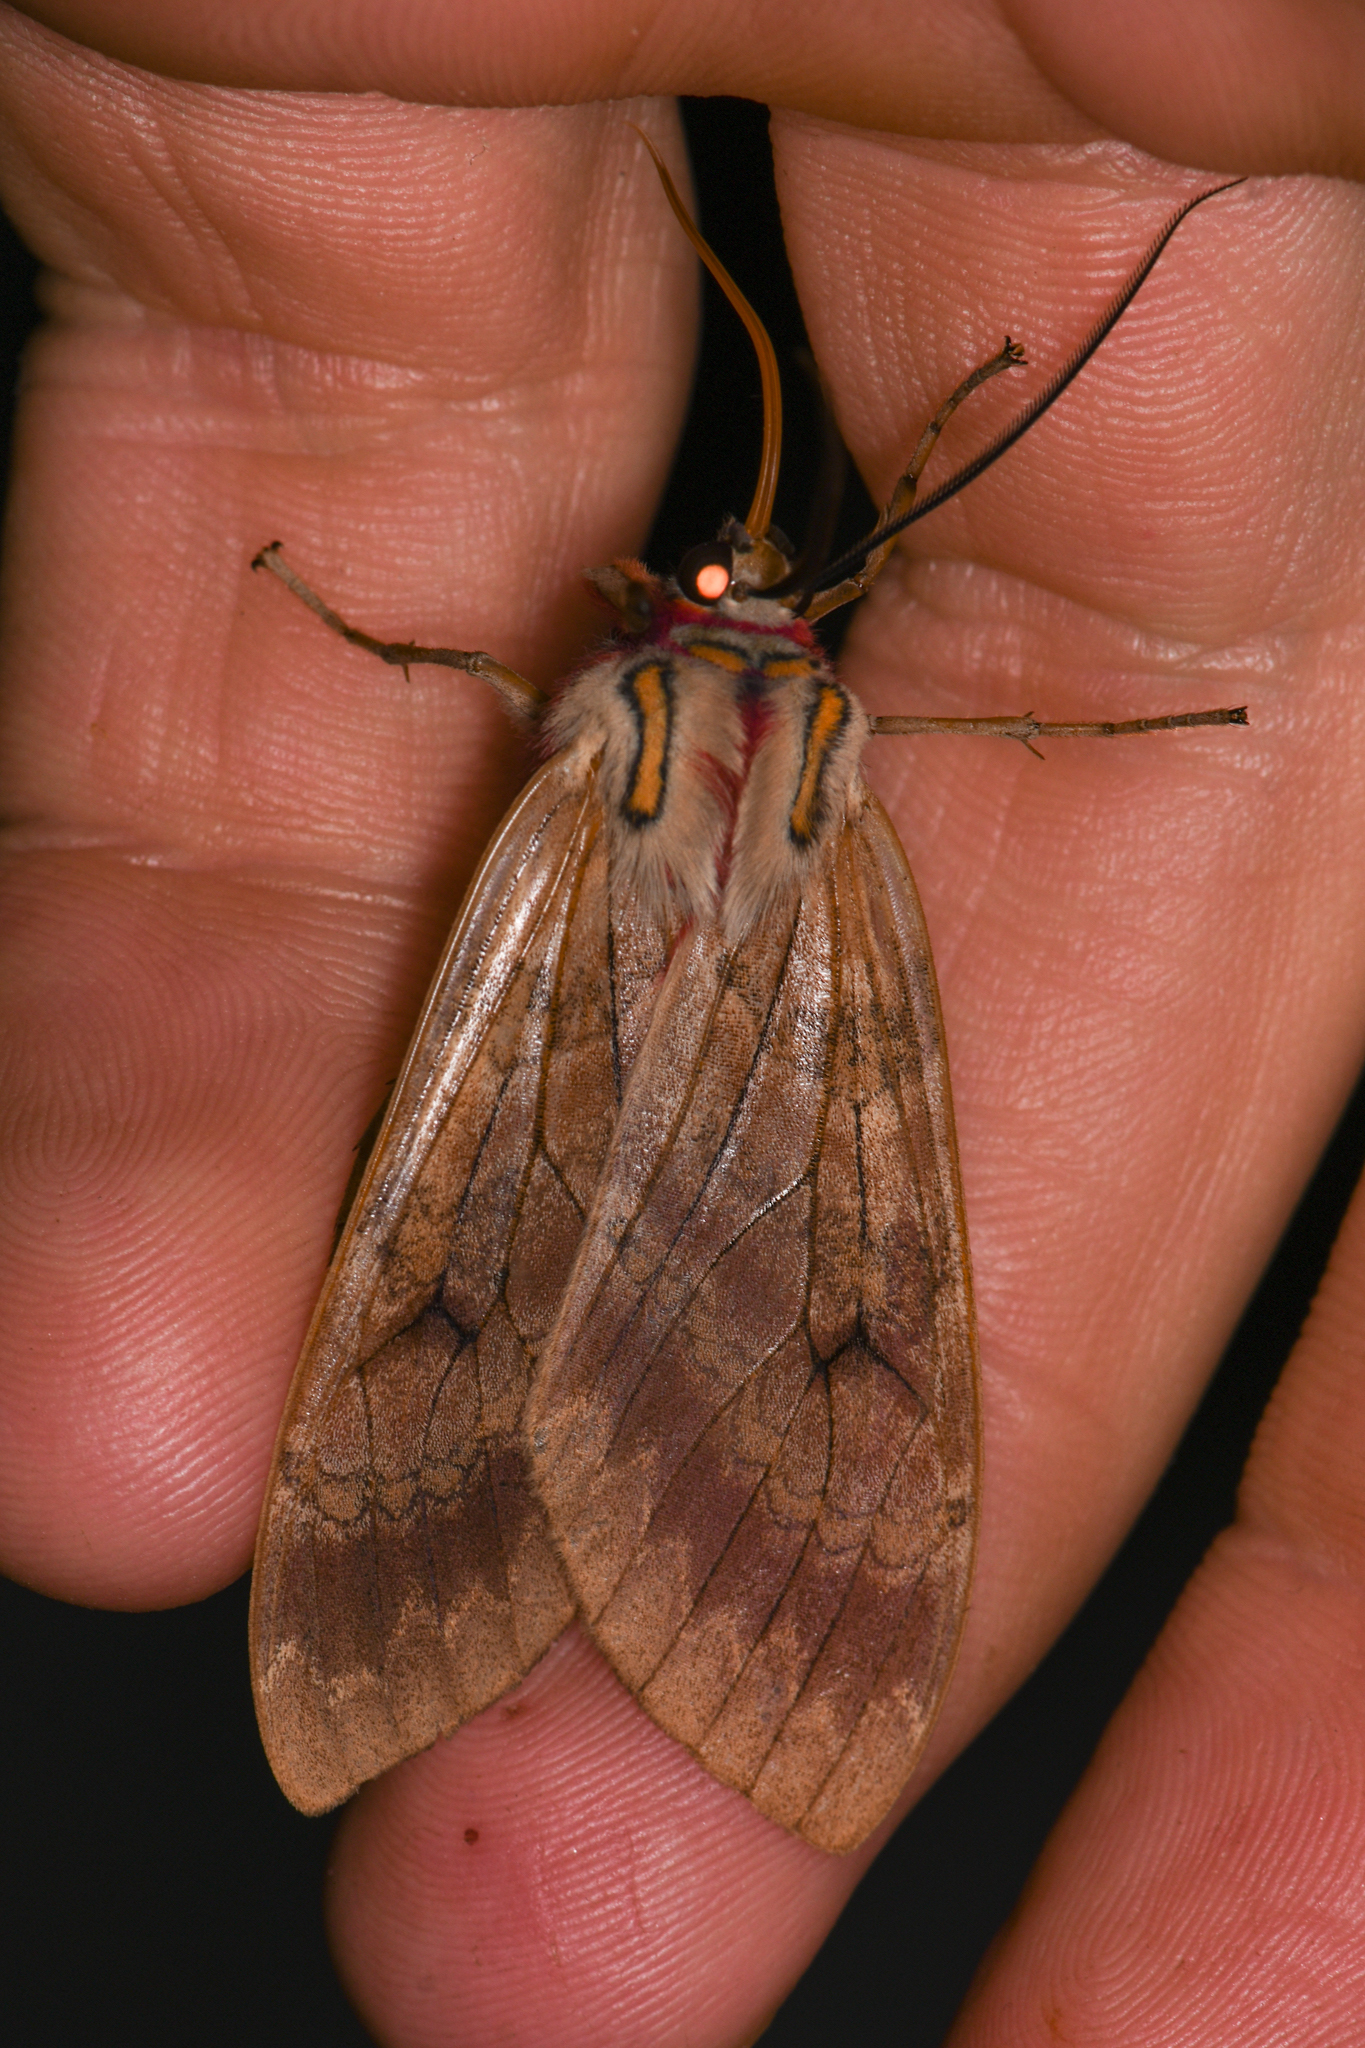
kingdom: Animalia
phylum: Arthropoda
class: Insecta
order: Lepidoptera
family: Erebidae
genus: Amastus
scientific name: Amastus flavicauda
